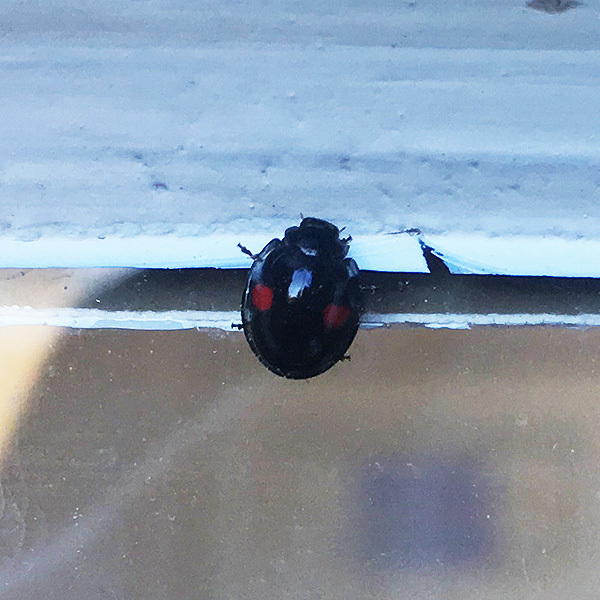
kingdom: Animalia
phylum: Arthropoda
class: Insecta
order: Coleoptera
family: Coccinellidae
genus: Chilocorus
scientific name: Chilocorus renipustulatus
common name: Kidney-spot ladybird
